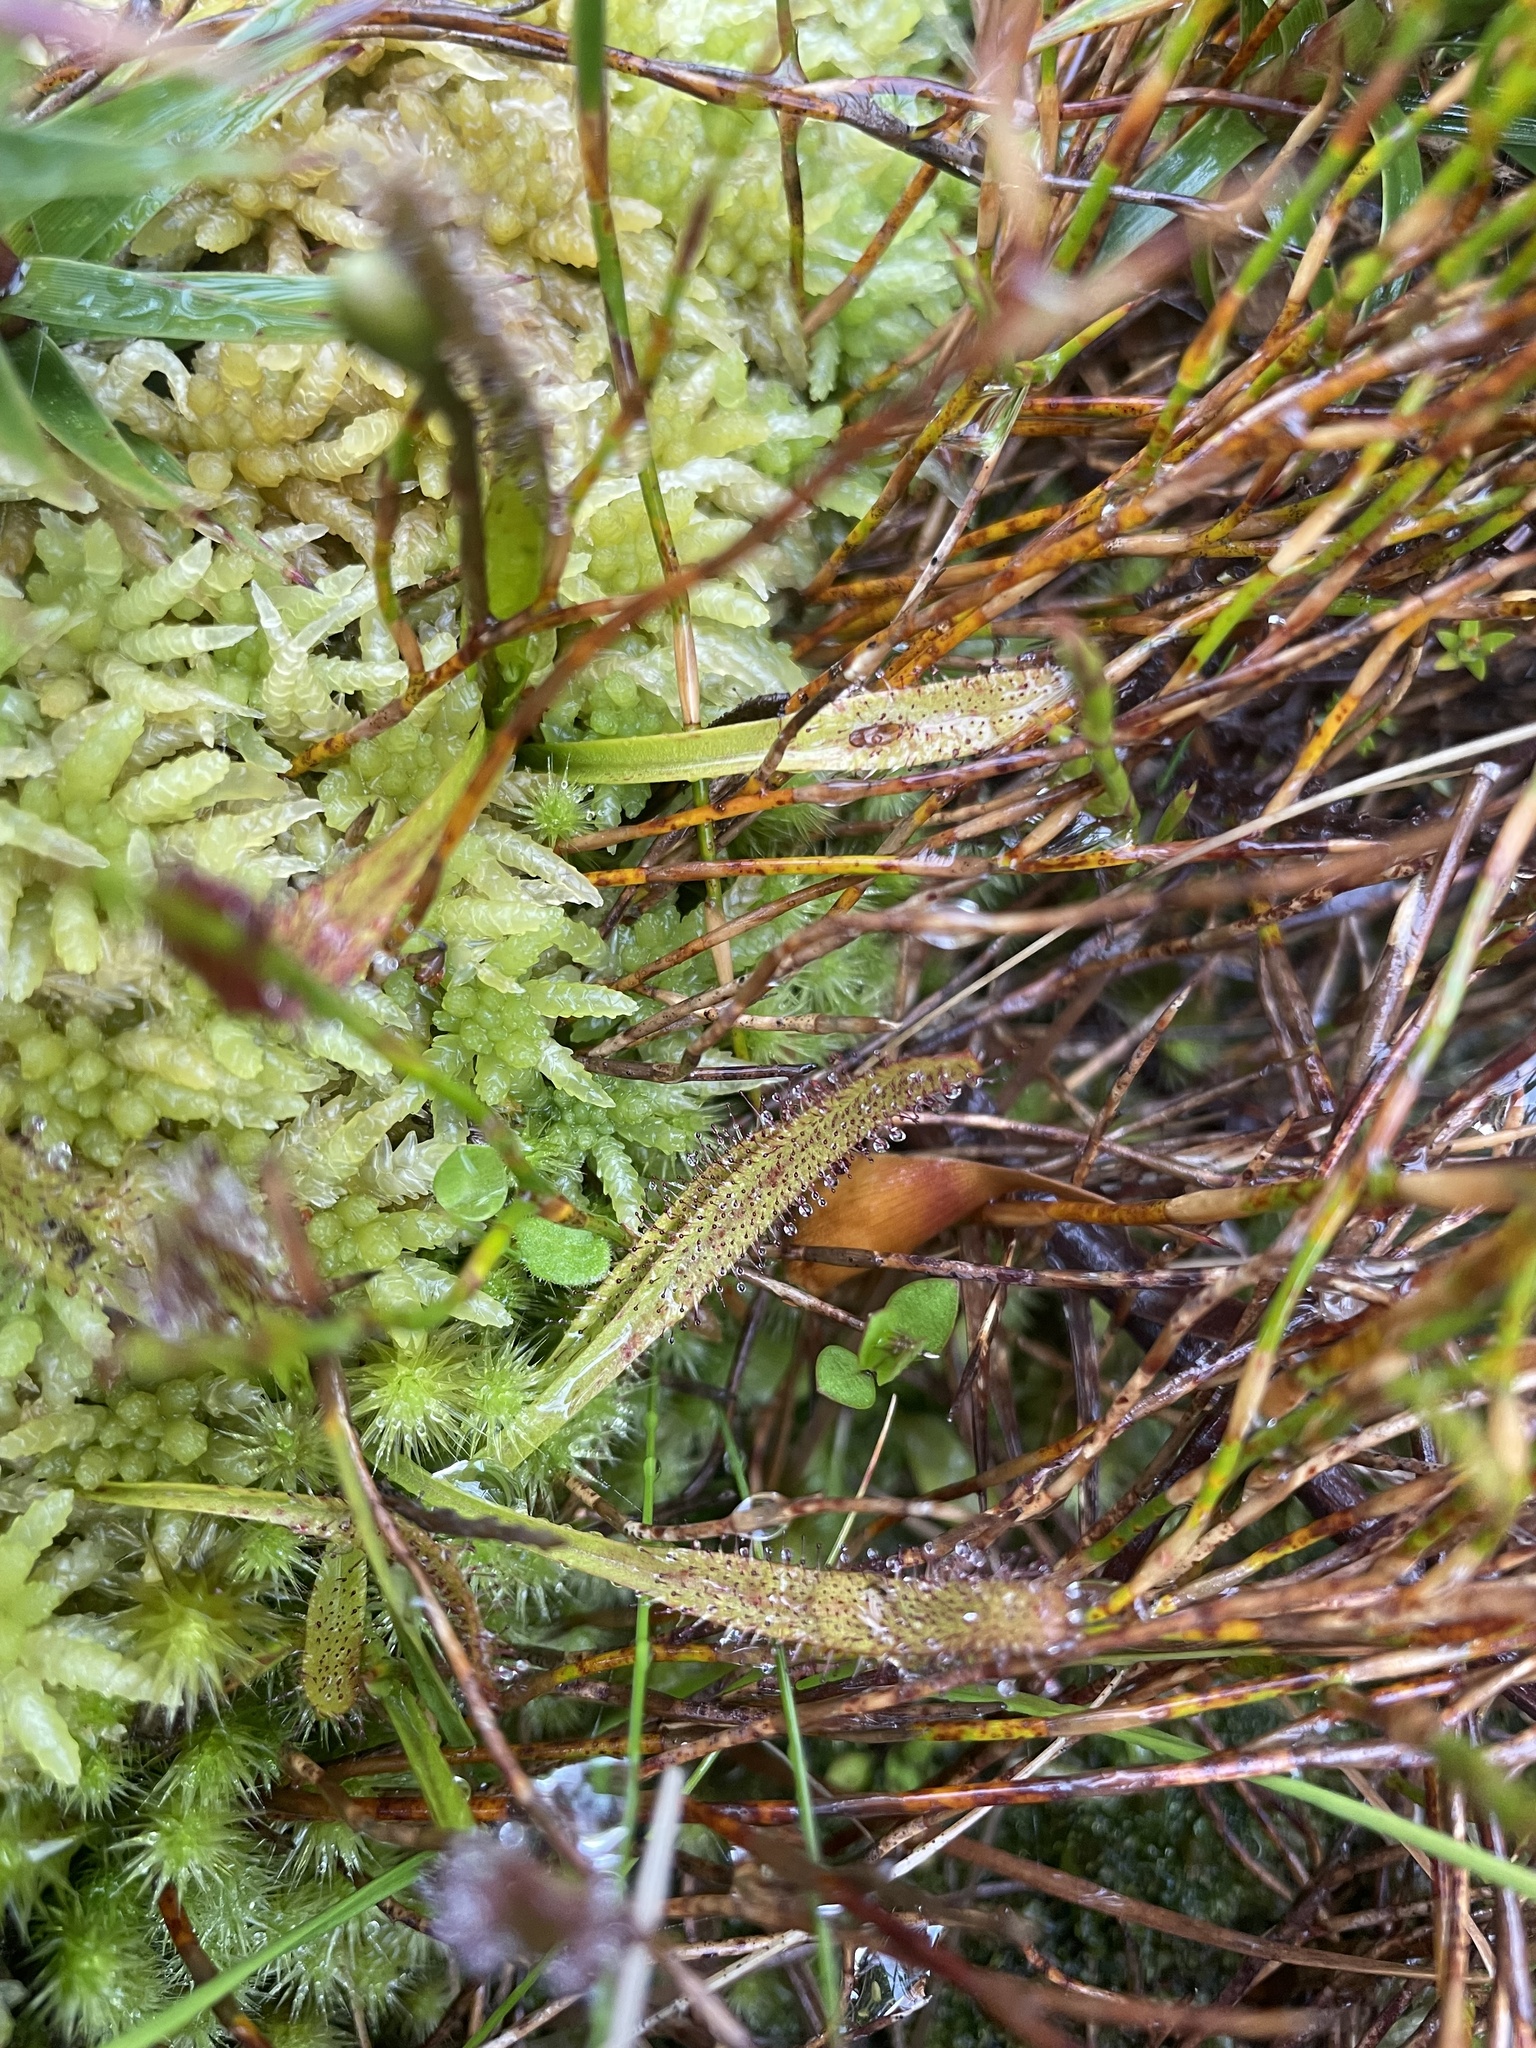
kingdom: Plantae
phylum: Tracheophyta
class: Magnoliopsida
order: Caryophyllales
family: Droseraceae
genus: Drosera
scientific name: Drosera arcturi
